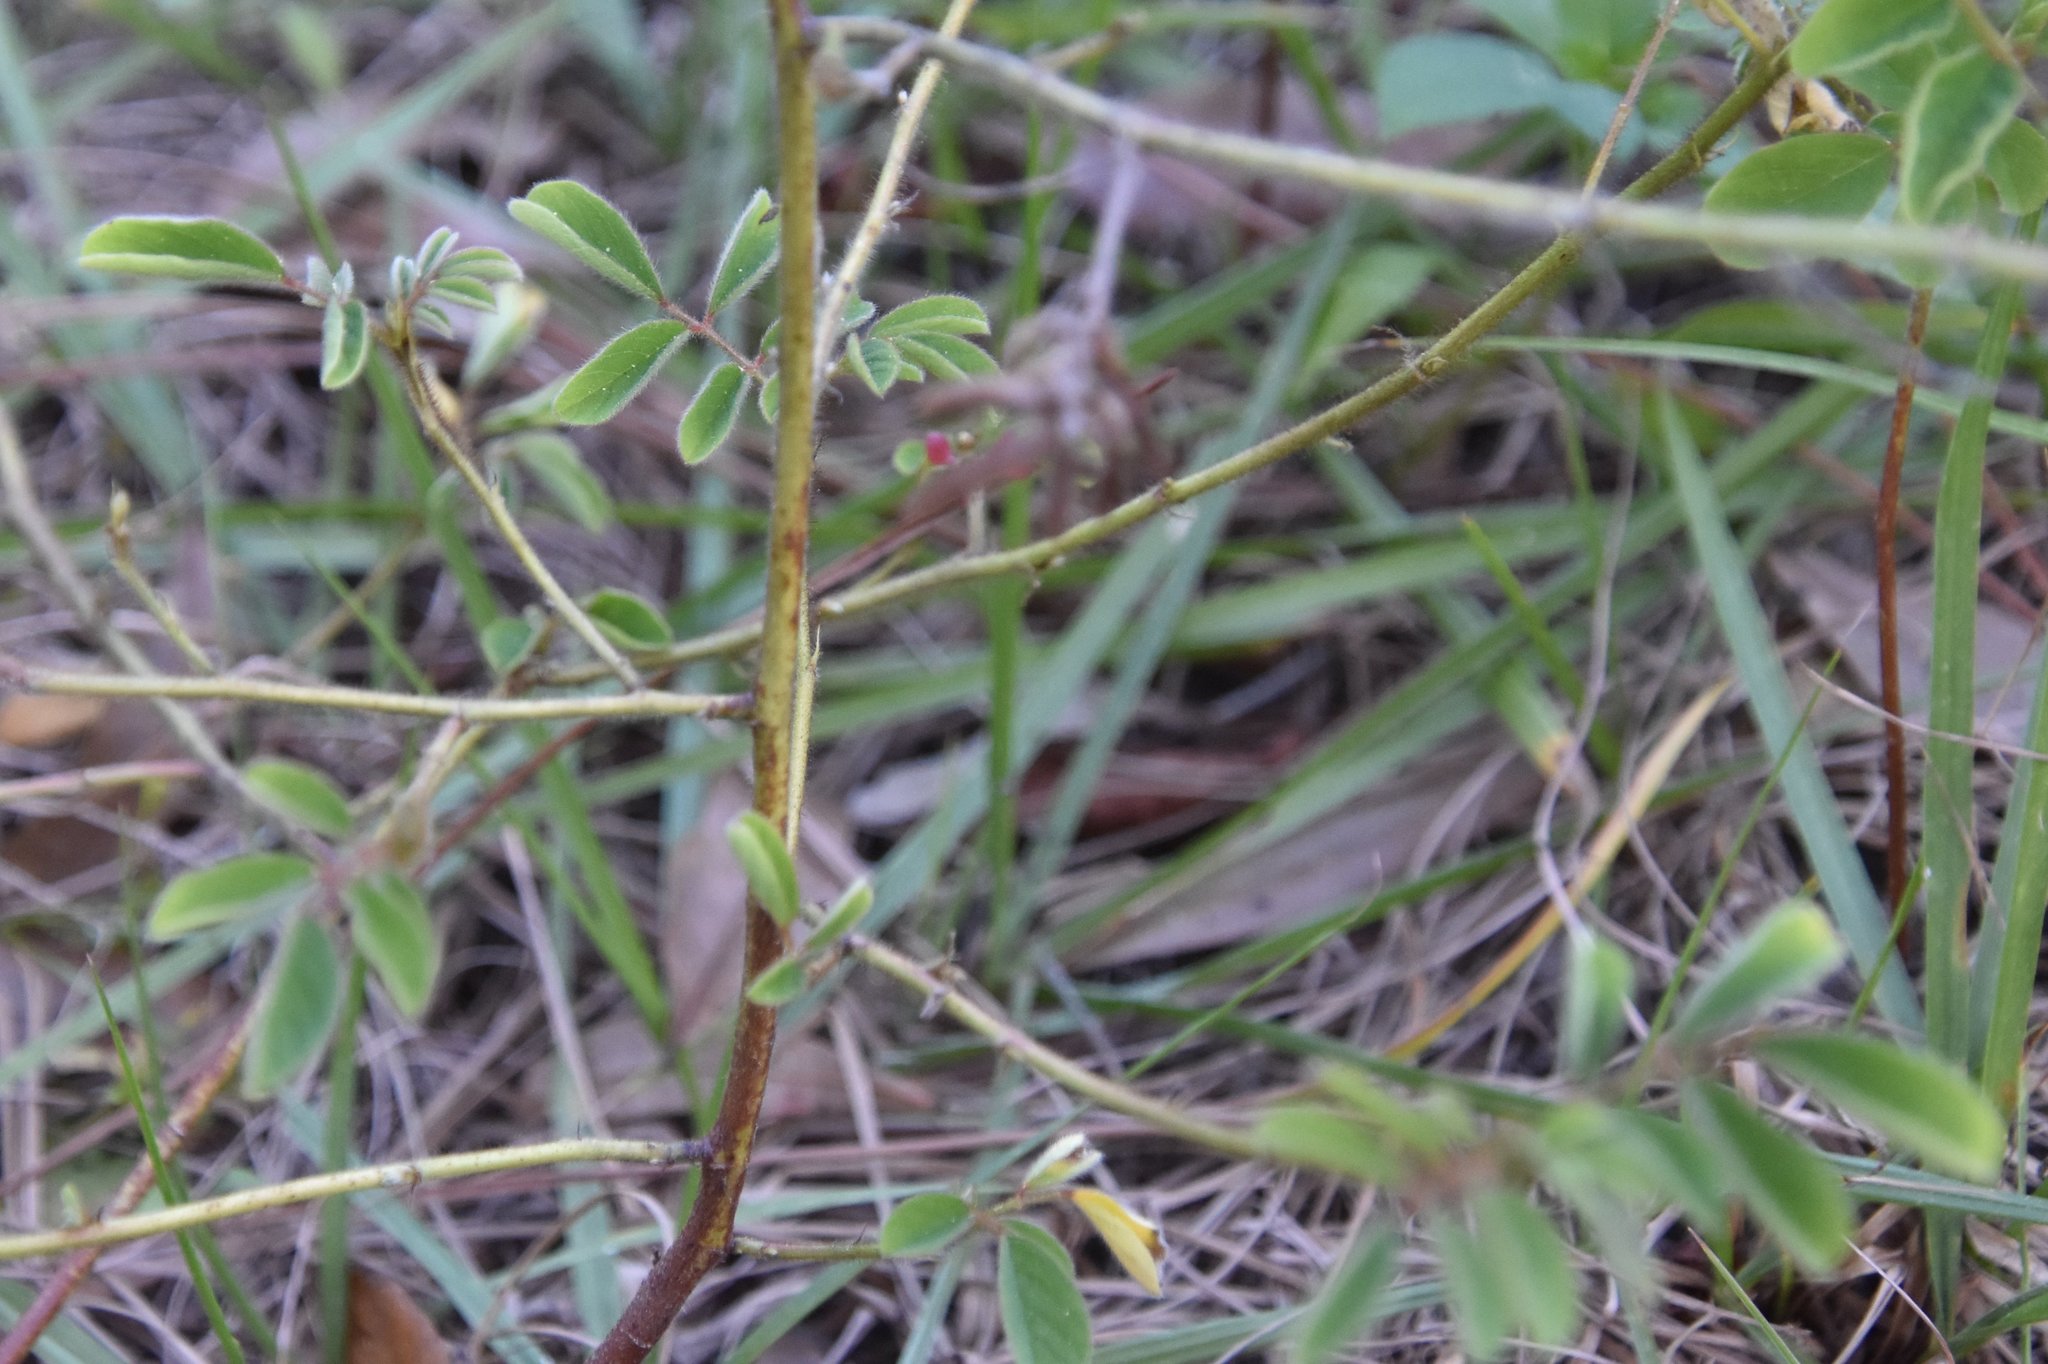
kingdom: Plantae
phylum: Tracheophyta
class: Magnoliopsida
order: Fabales
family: Fabaceae
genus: Indigofera
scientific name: Indigofera hirsuta
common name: Hairy indigo
